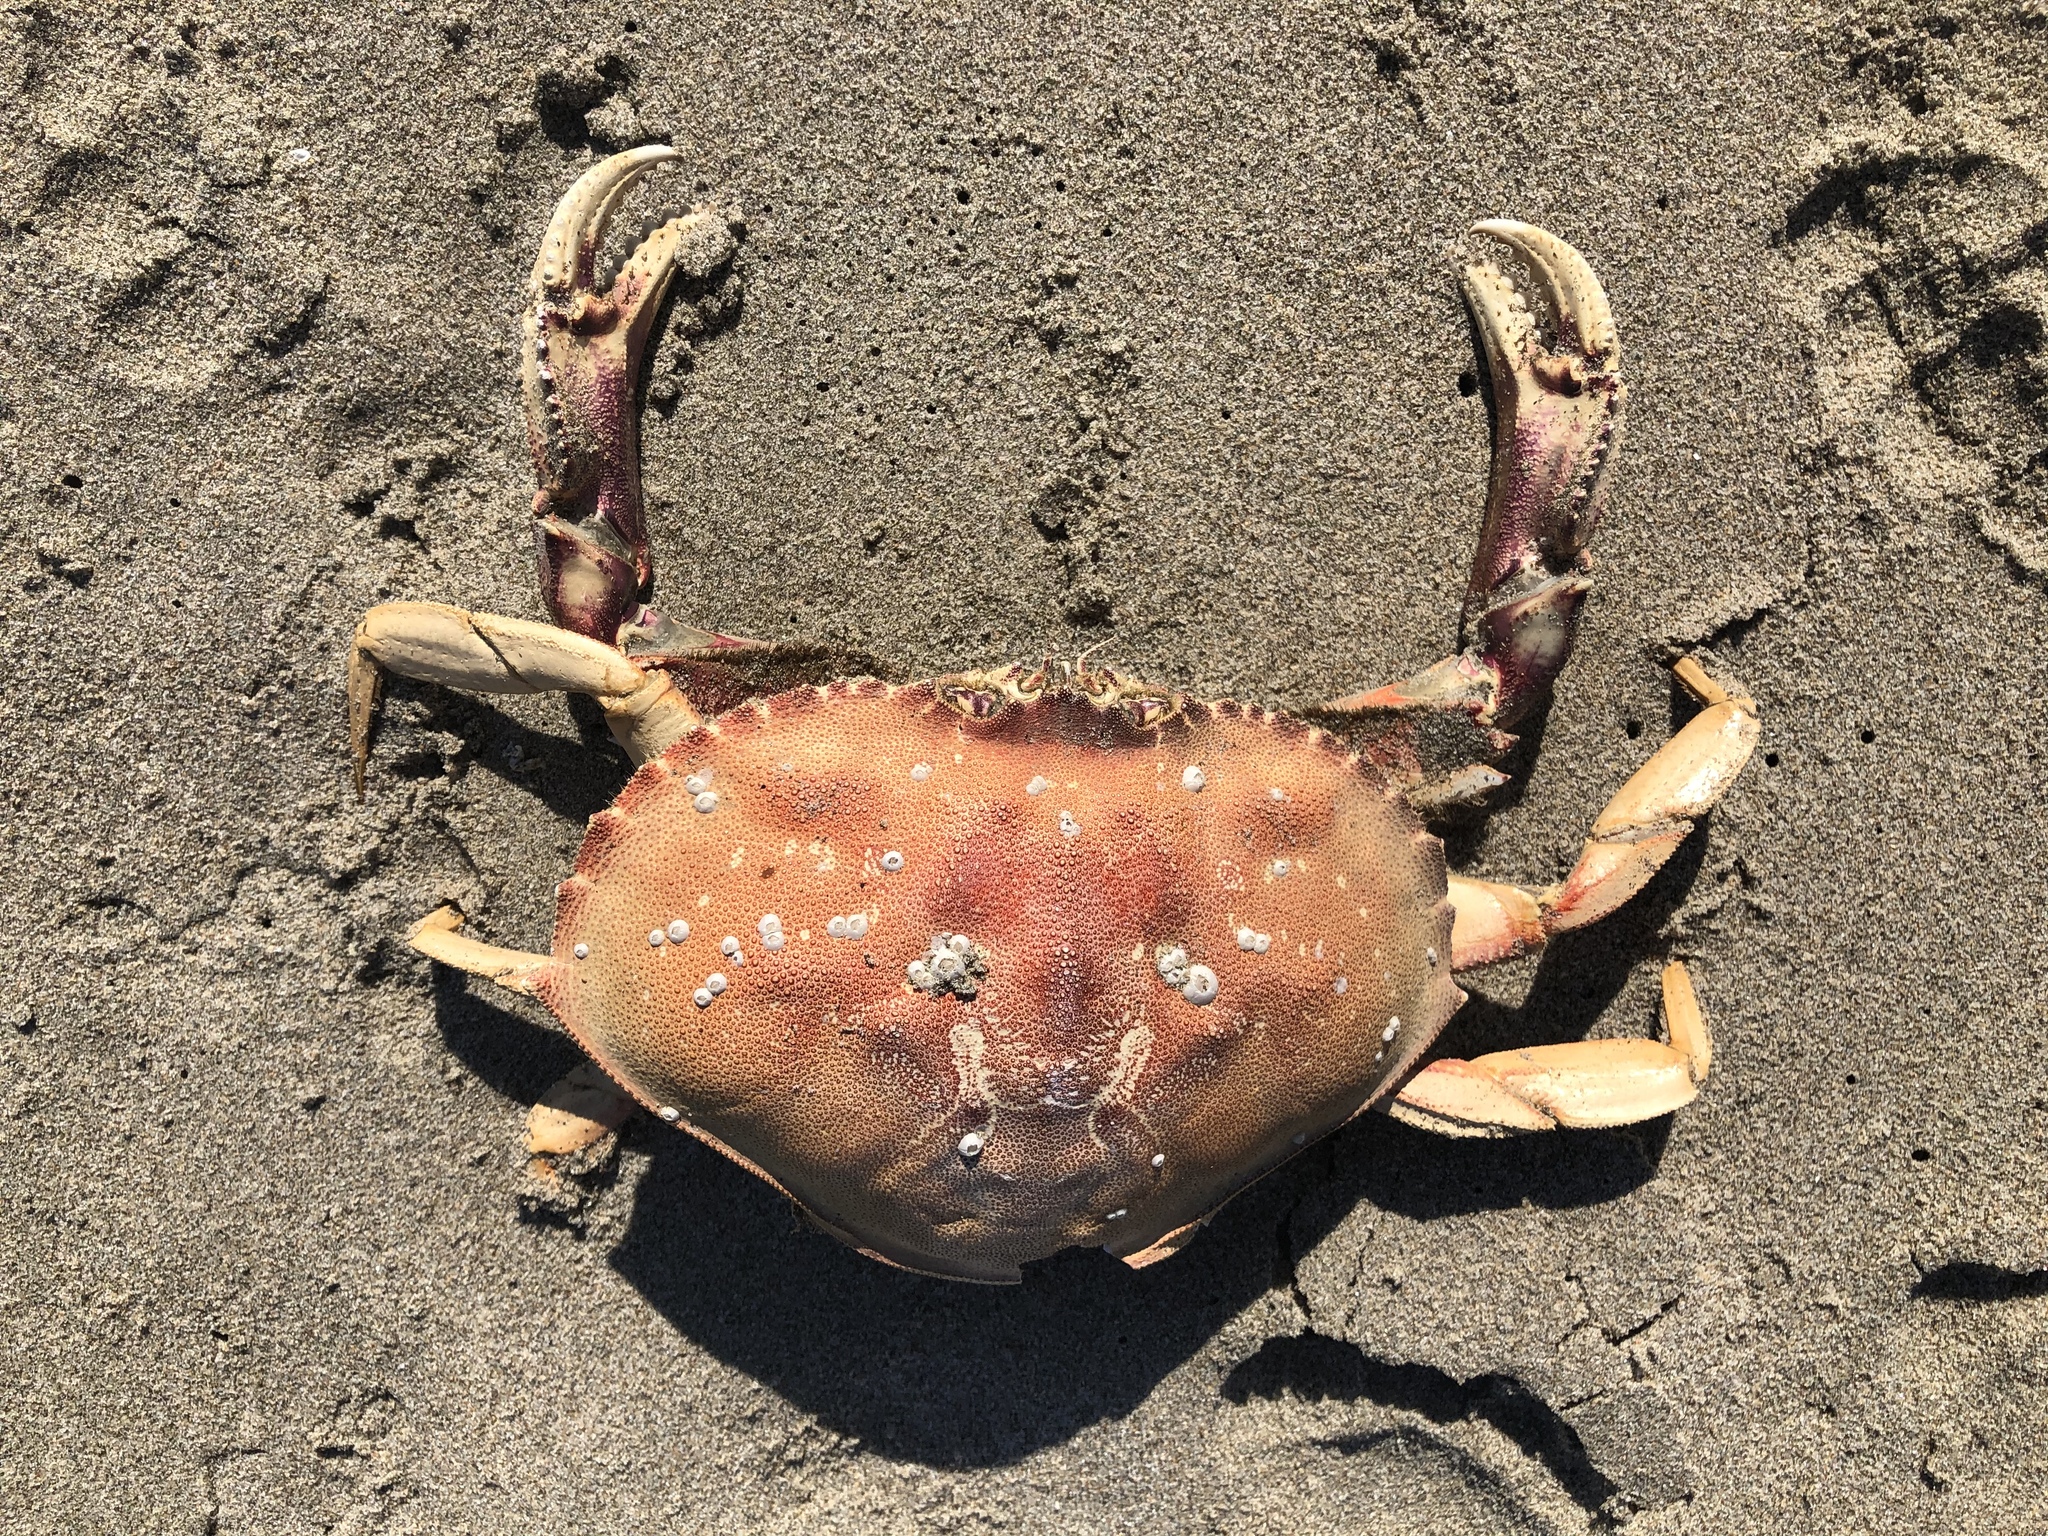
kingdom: Animalia
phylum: Arthropoda
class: Malacostraca
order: Decapoda
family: Cancridae
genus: Metacarcinus
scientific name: Metacarcinus magister
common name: Californian crab
